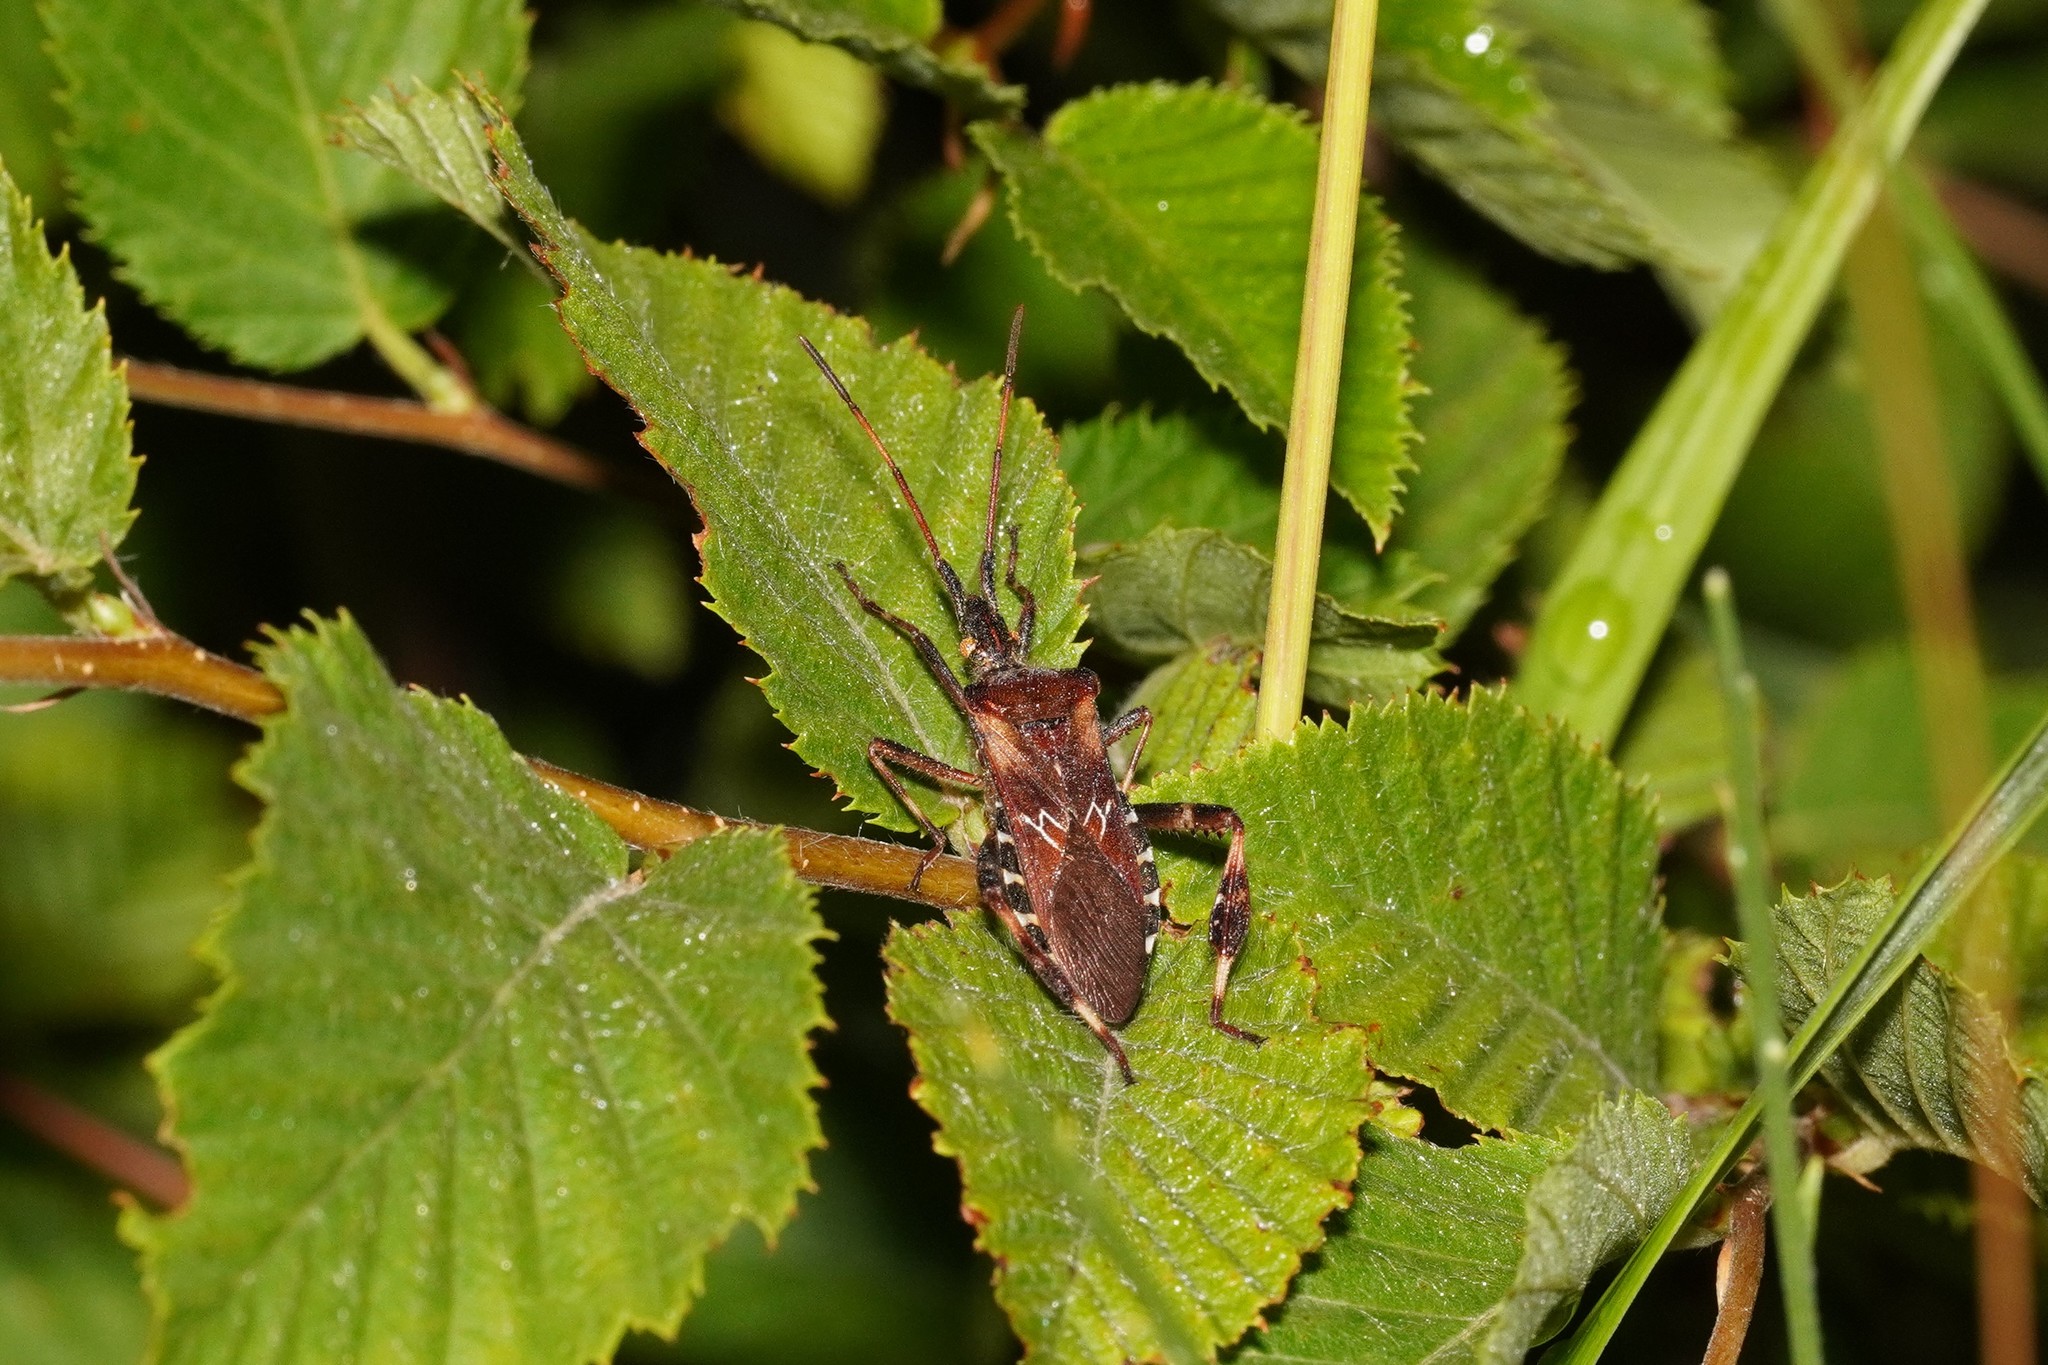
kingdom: Animalia
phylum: Arthropoda
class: Insecta
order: Hemiptera
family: Coreidae
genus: Leptoglossus
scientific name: Leptoglossus occidentalis
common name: Western conifer-seed bug
